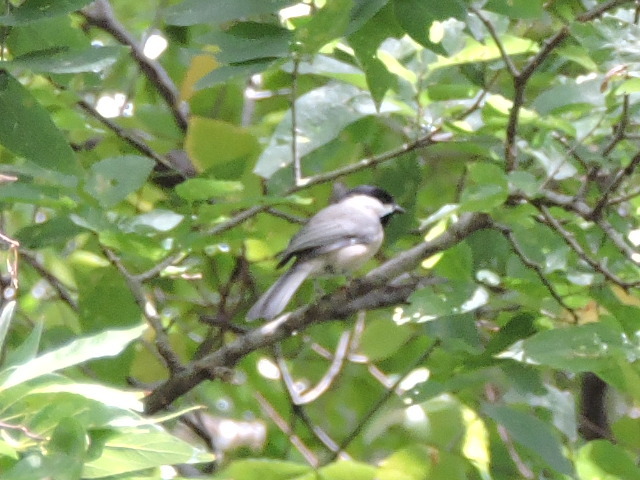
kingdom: Animalia
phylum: Chordata
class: Aves
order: Passeriformes
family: Paridae
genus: Poecile
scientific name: Poecile carolinensis
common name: Carolina chickadee
